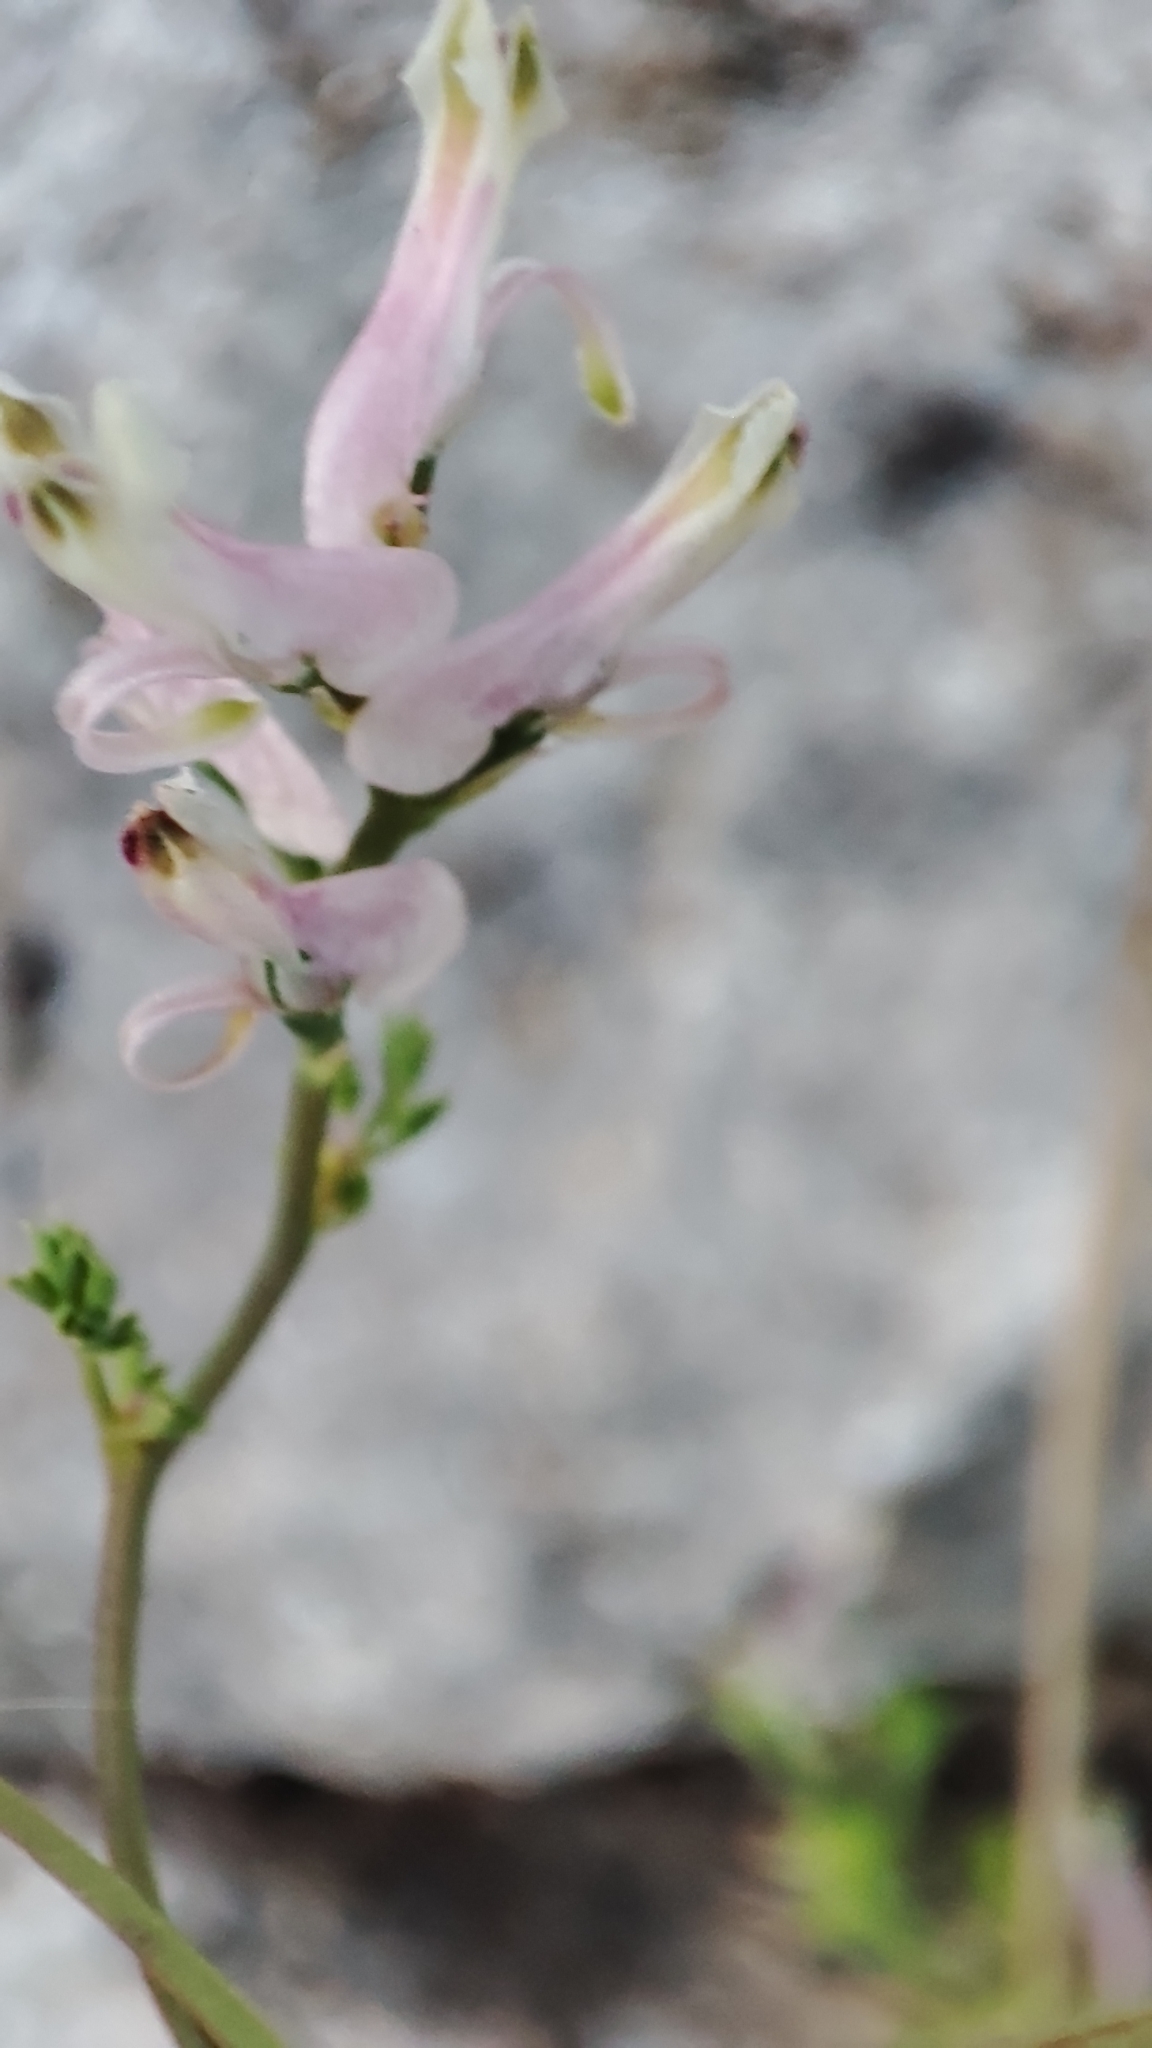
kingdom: Plantae
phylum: Tracheophyta
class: Magnoliopsida
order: Ranunculales
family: Papaveraceae
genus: Fumaria
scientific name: Fumaria macrocarpa
